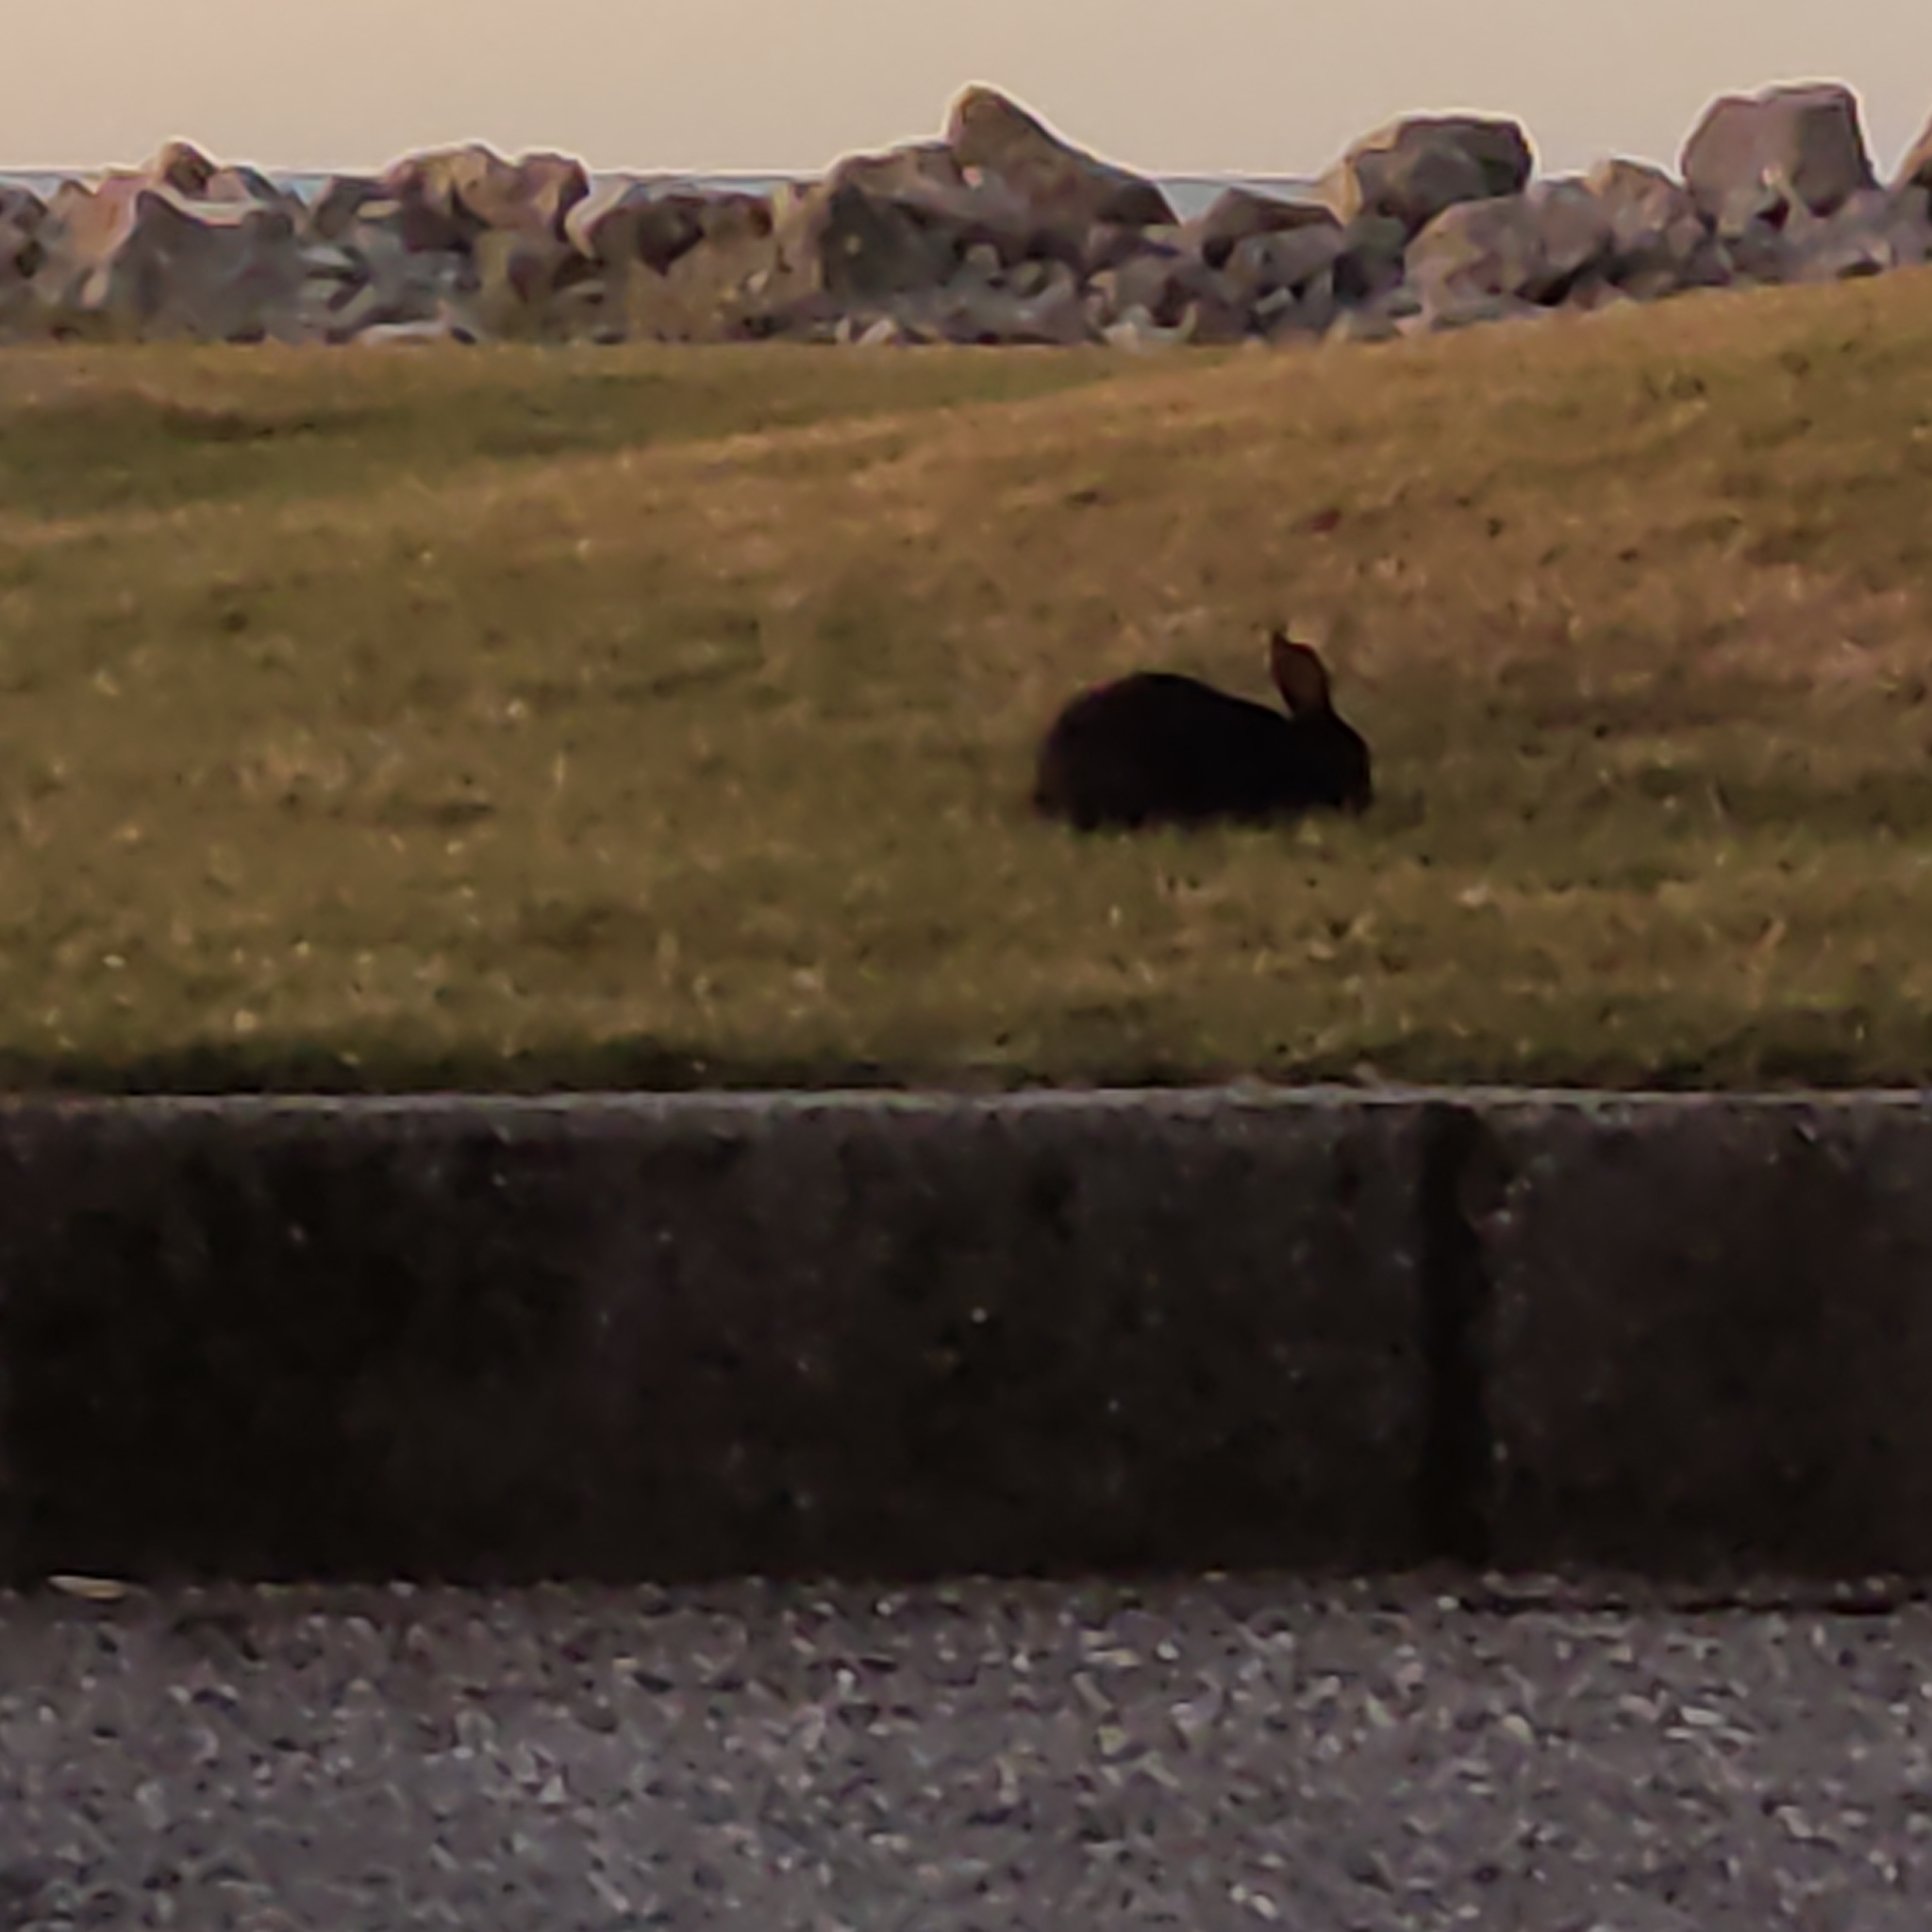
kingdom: Animalia
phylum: Chordata
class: Mammalia
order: Lagomorpha
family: Leporidae
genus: Oryctolagus
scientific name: Oryctolagus cuniculus
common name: European rabbit
